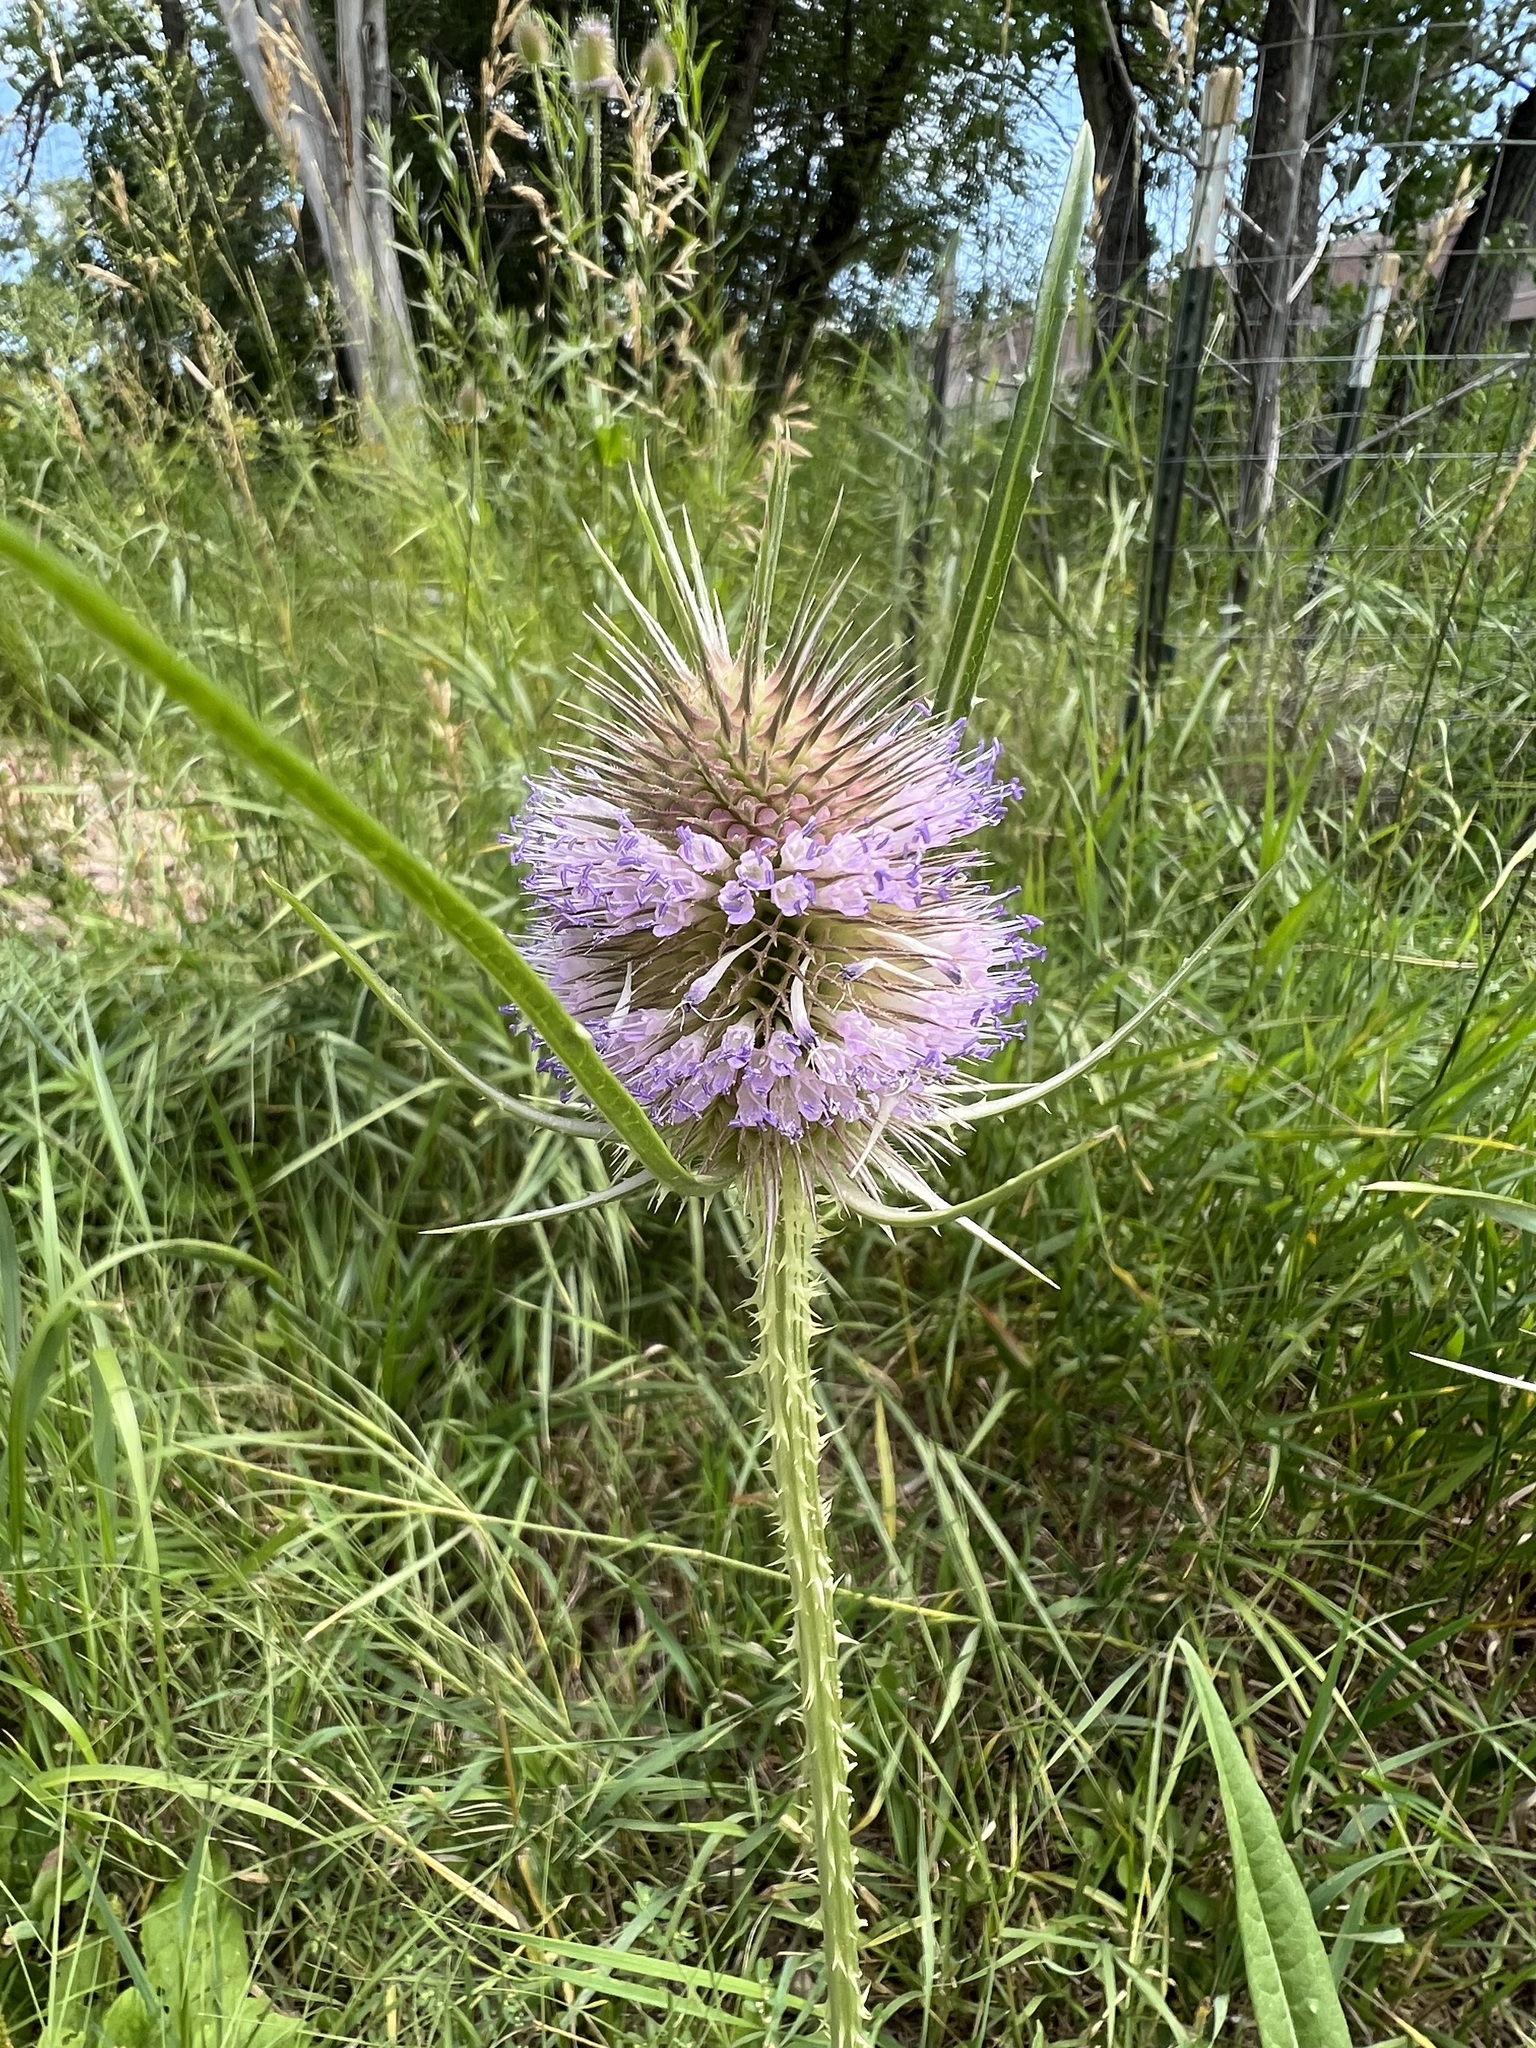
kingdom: Plantae
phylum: Tracheophyta
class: Magnoliopsida
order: Dipsacales
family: Caprifoliaceae
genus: Dipsacus
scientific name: Dipsacus fullonum
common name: Teasel
